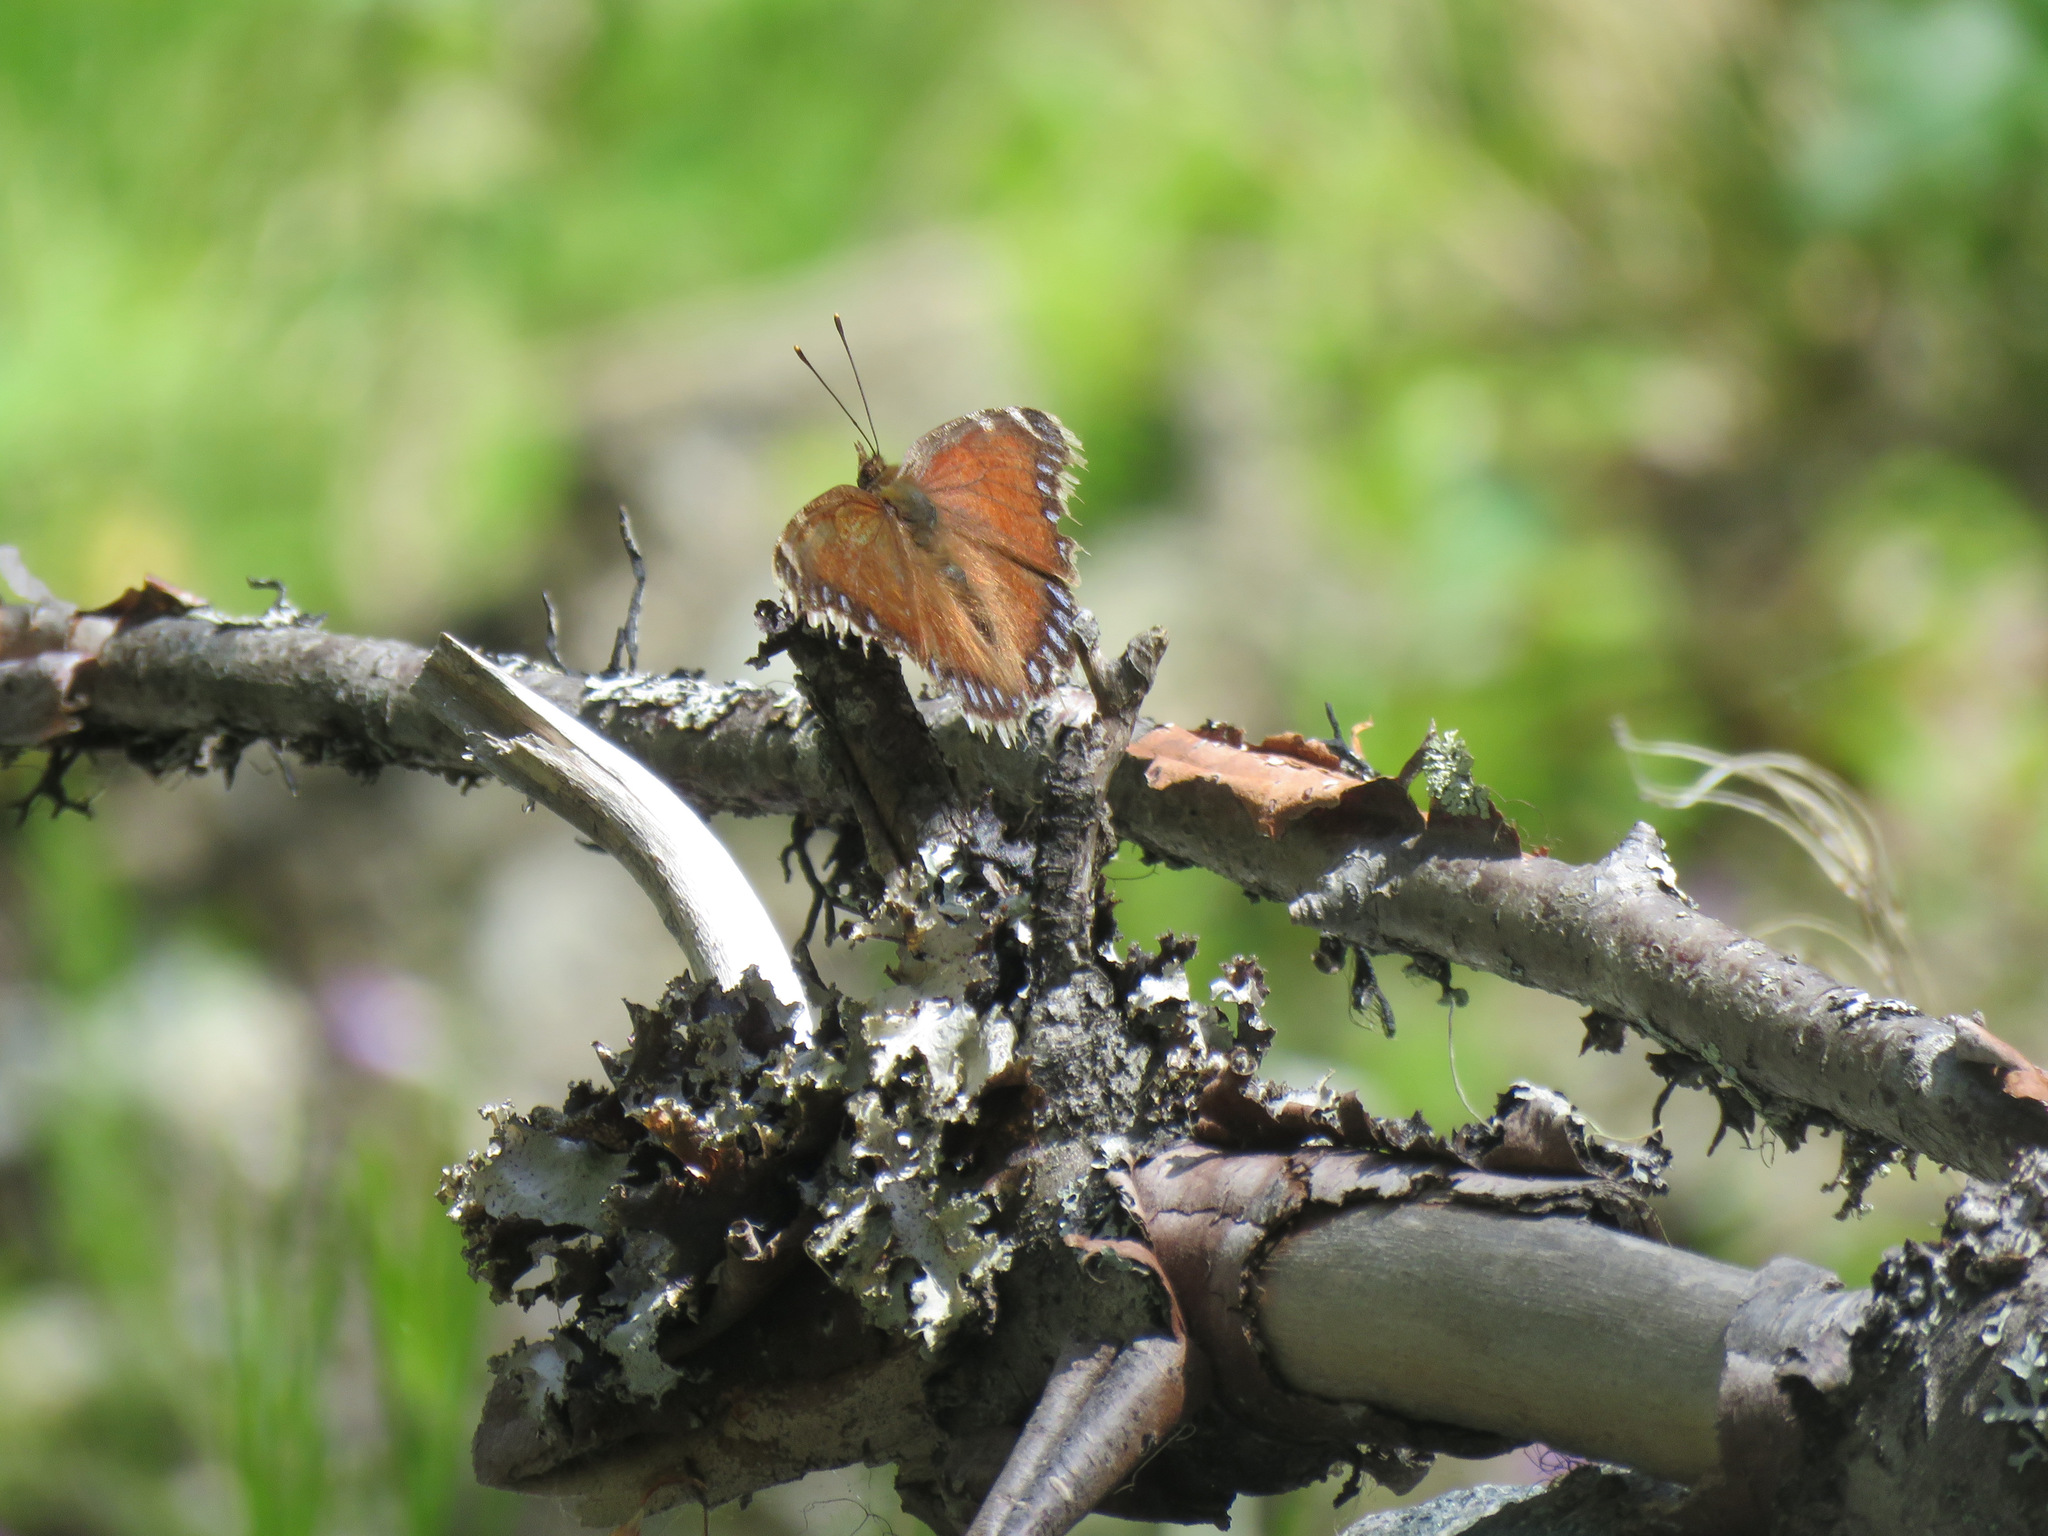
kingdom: Animalia
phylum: Arthropoda
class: Insecta
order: Lepidoptera
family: Nymphalidae
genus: Nymphalis
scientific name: Nymphalis antiopa
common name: Camberwell beauty
